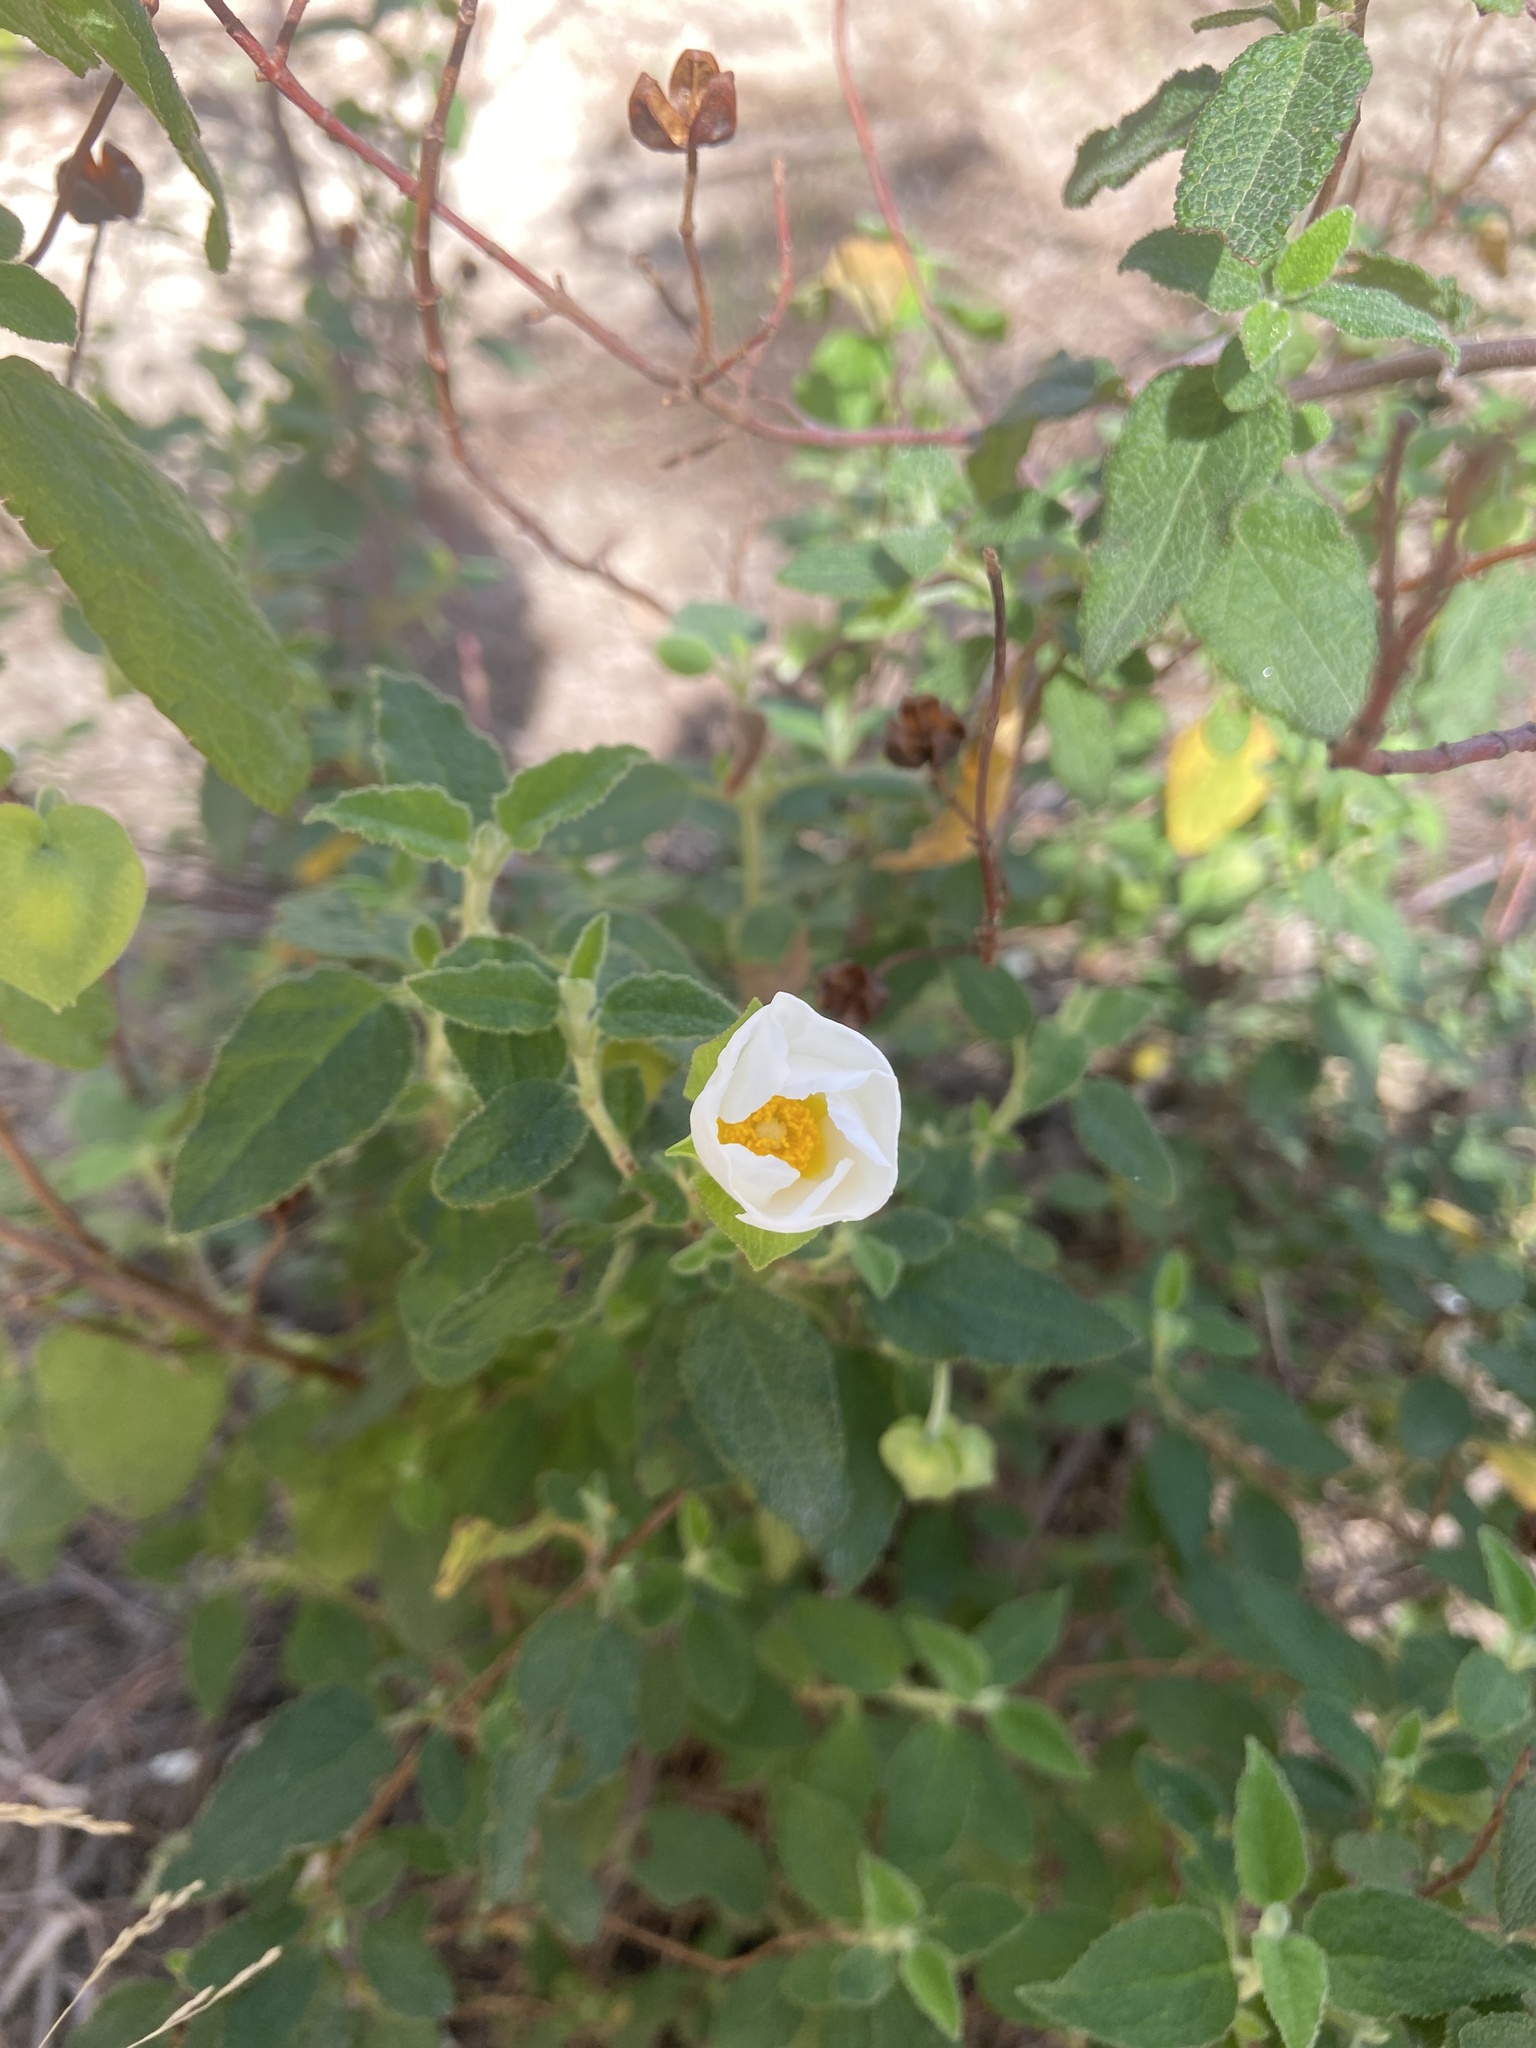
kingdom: Plantae
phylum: Tracheophyta
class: Magnoliopsida
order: Malvales
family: Cistaceae
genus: Cistus
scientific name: Cistus salviifolius
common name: Salvia cistus
